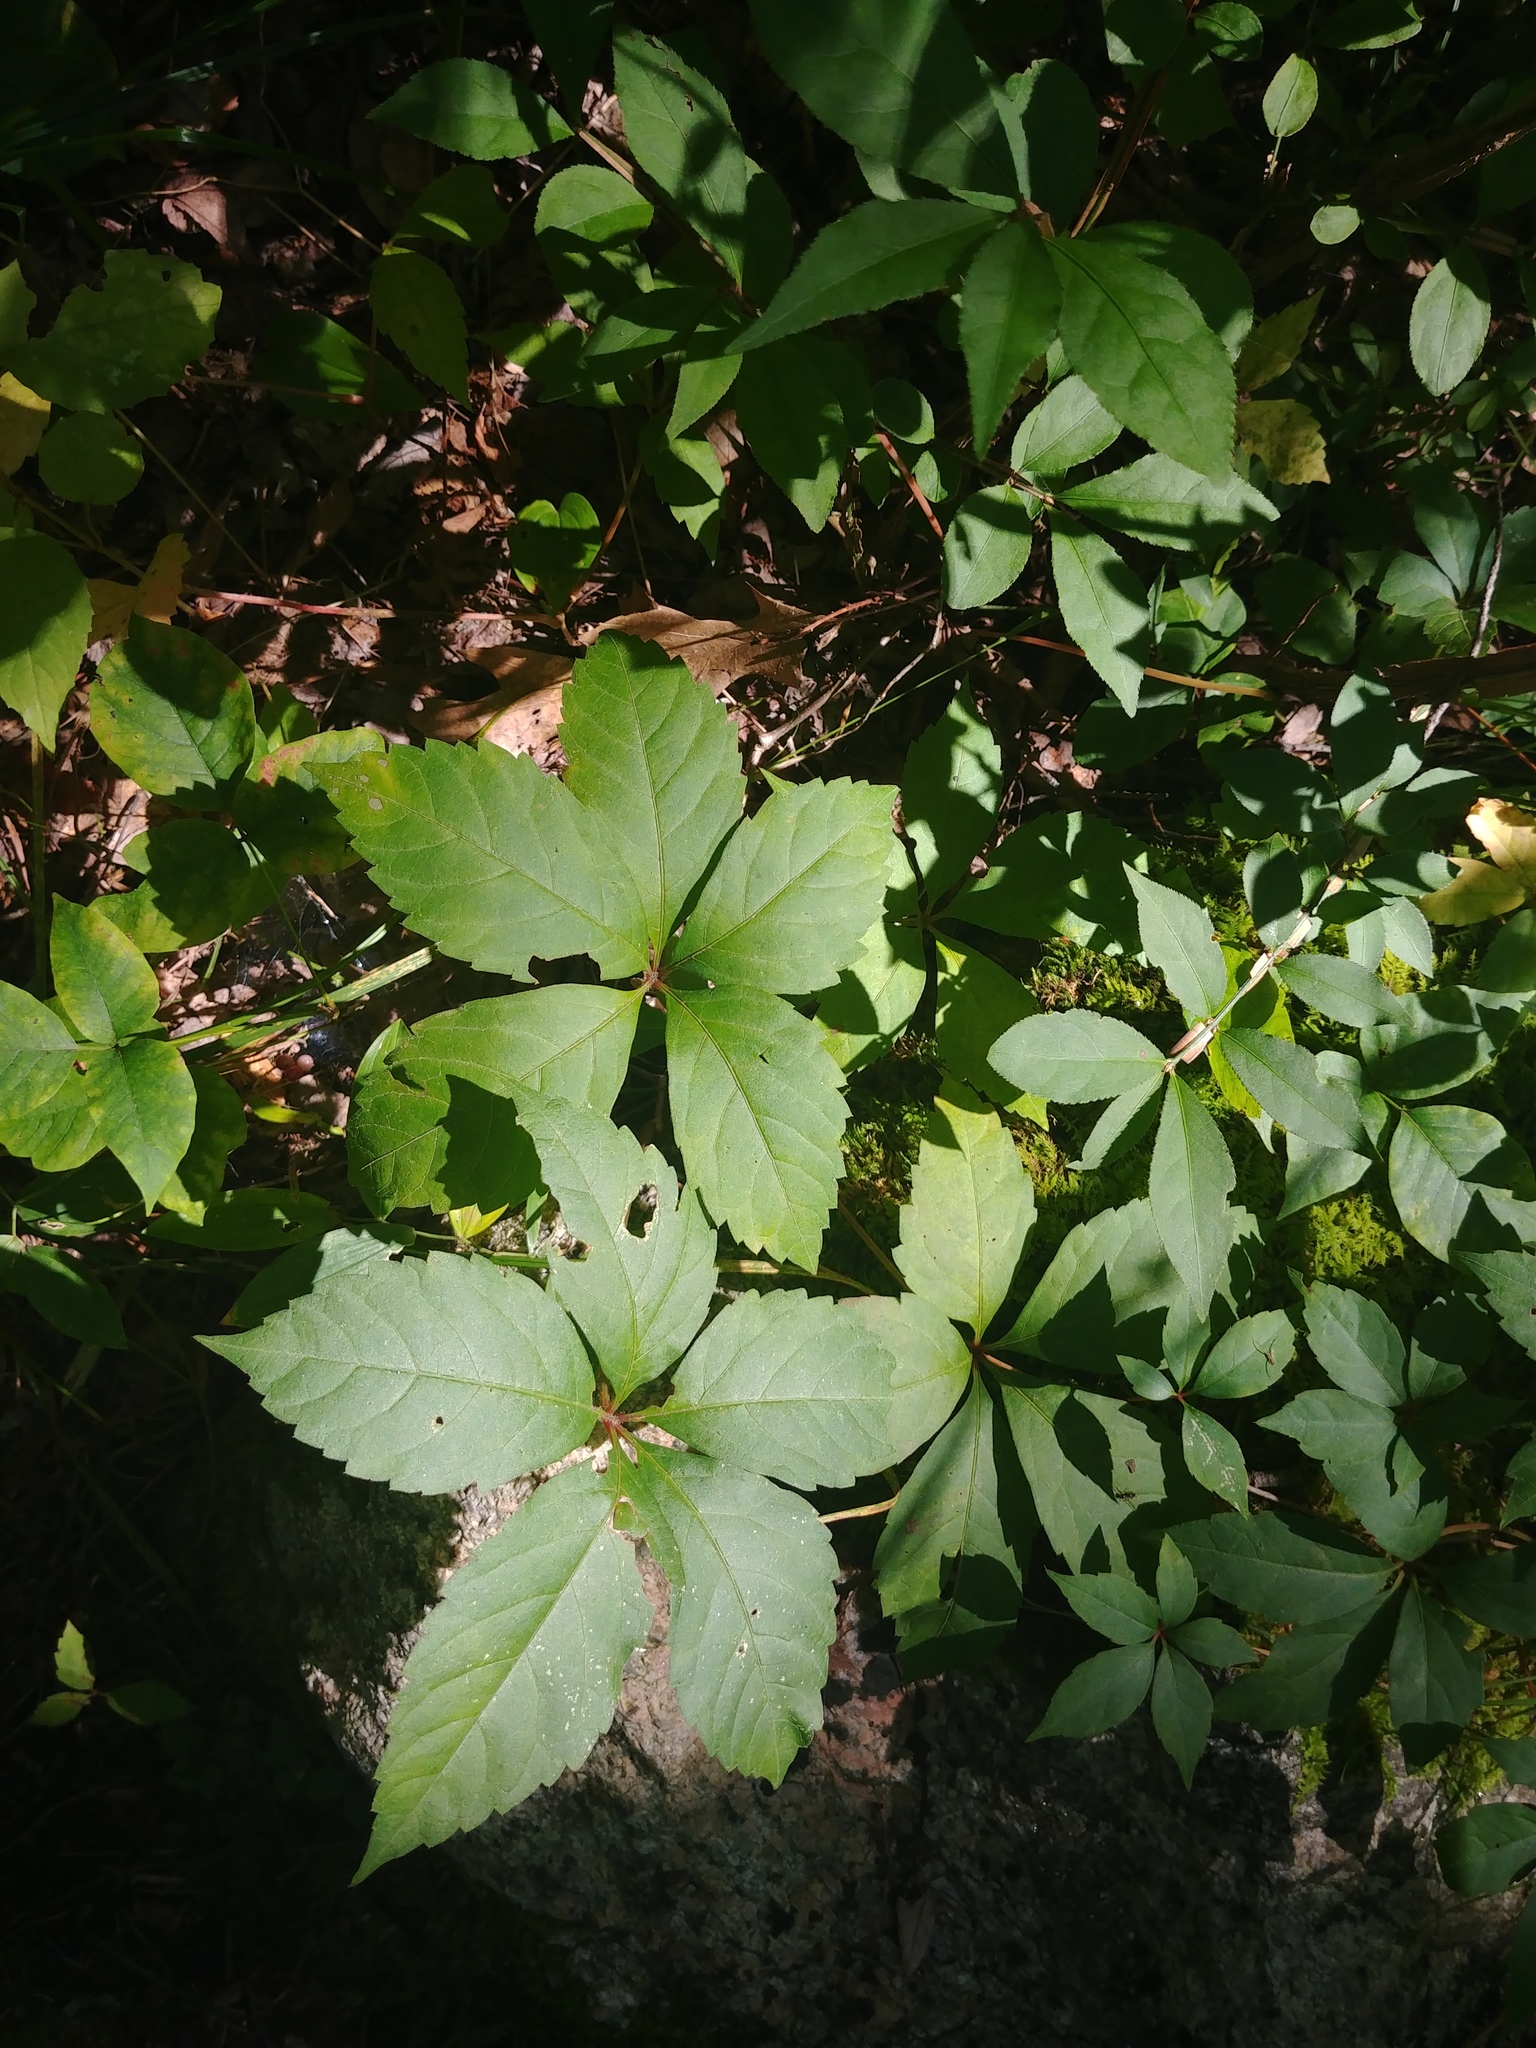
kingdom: Plantae
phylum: Tracheophyta
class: Magnoliopsida
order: Vitales
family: Vitaceae
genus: Parthenocissus
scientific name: Parthenocissus quinquefolia
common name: Virginia-creeper
